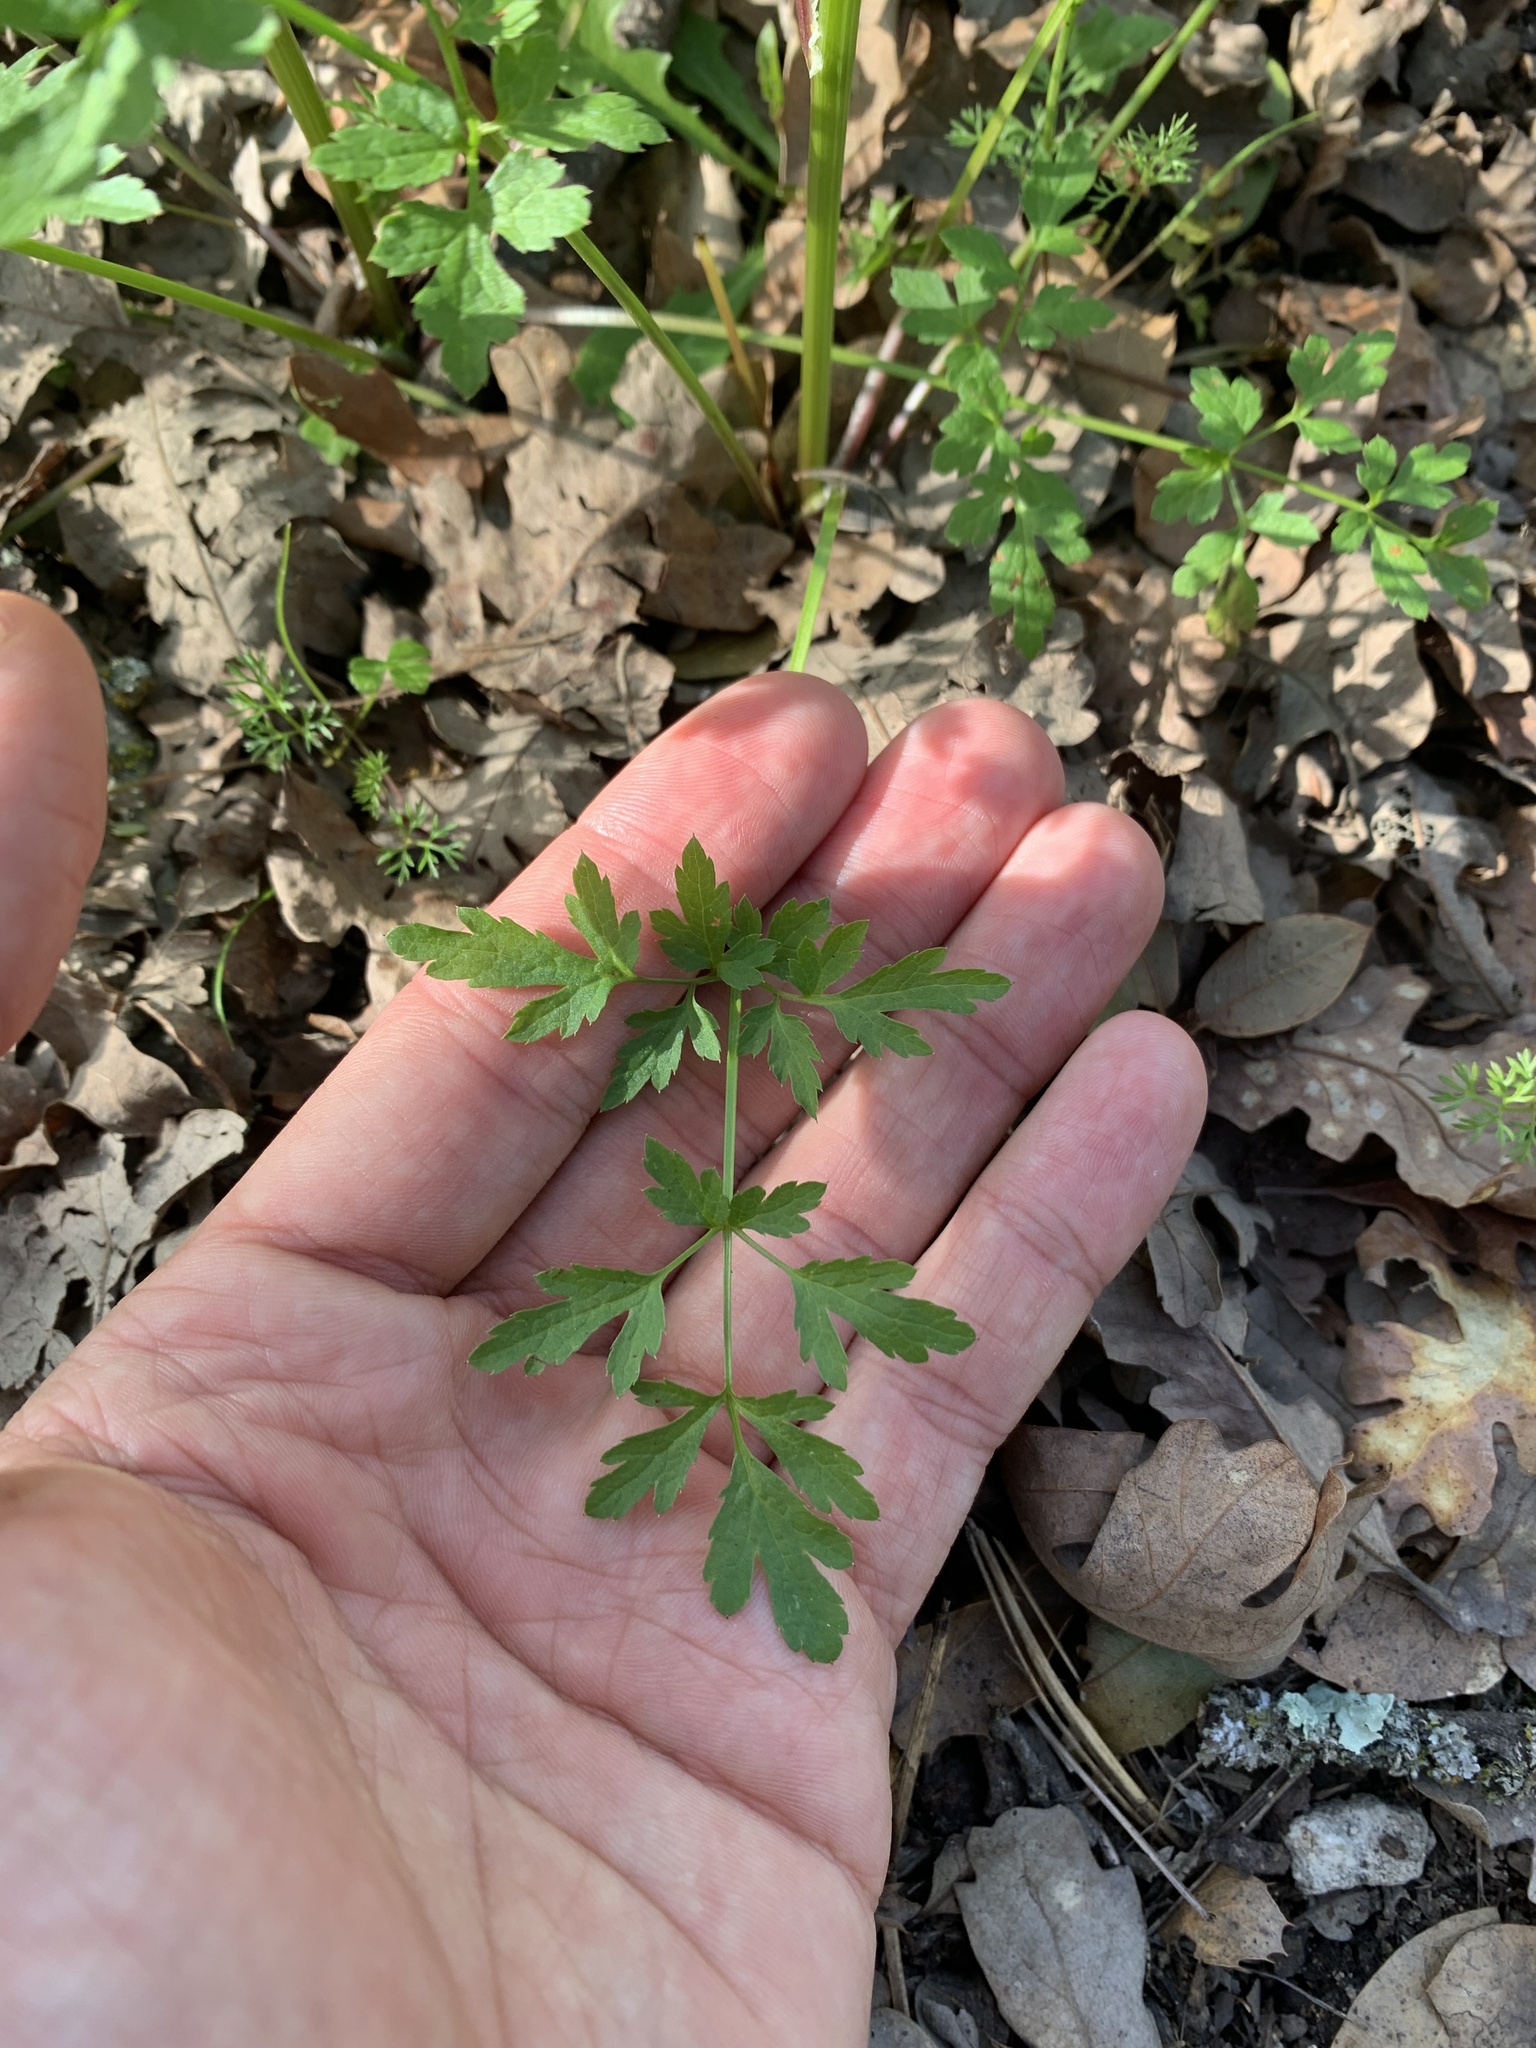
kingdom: Plantae
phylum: Tracheophyta
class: Magnoliopsida
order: Apiales
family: Apiaceae
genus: Sanicula
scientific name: Sanicula bipinnata
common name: Poison sanicle
